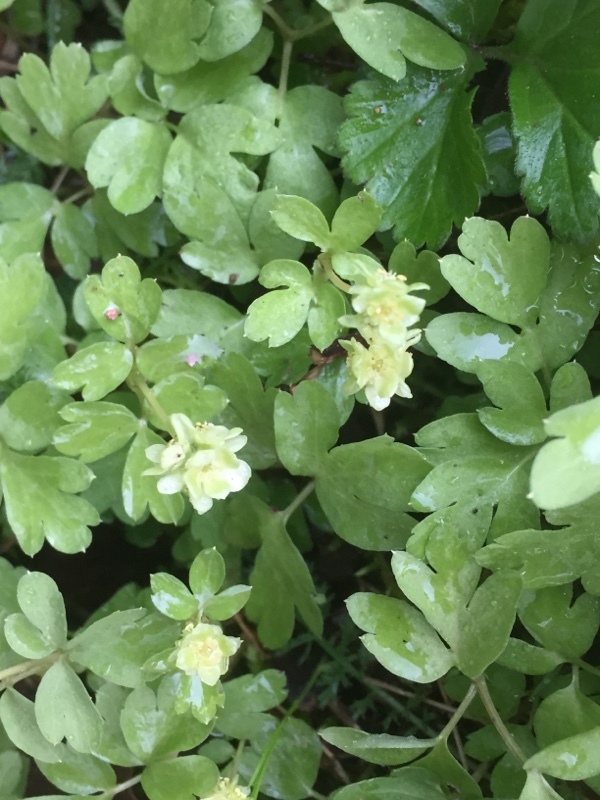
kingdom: Plantae
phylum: Tracheophyta
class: Magnoliopsida
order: Dipsacales
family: Viburnaceae
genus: Adoxa
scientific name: Adoxa moschatellina
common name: Moschatel
